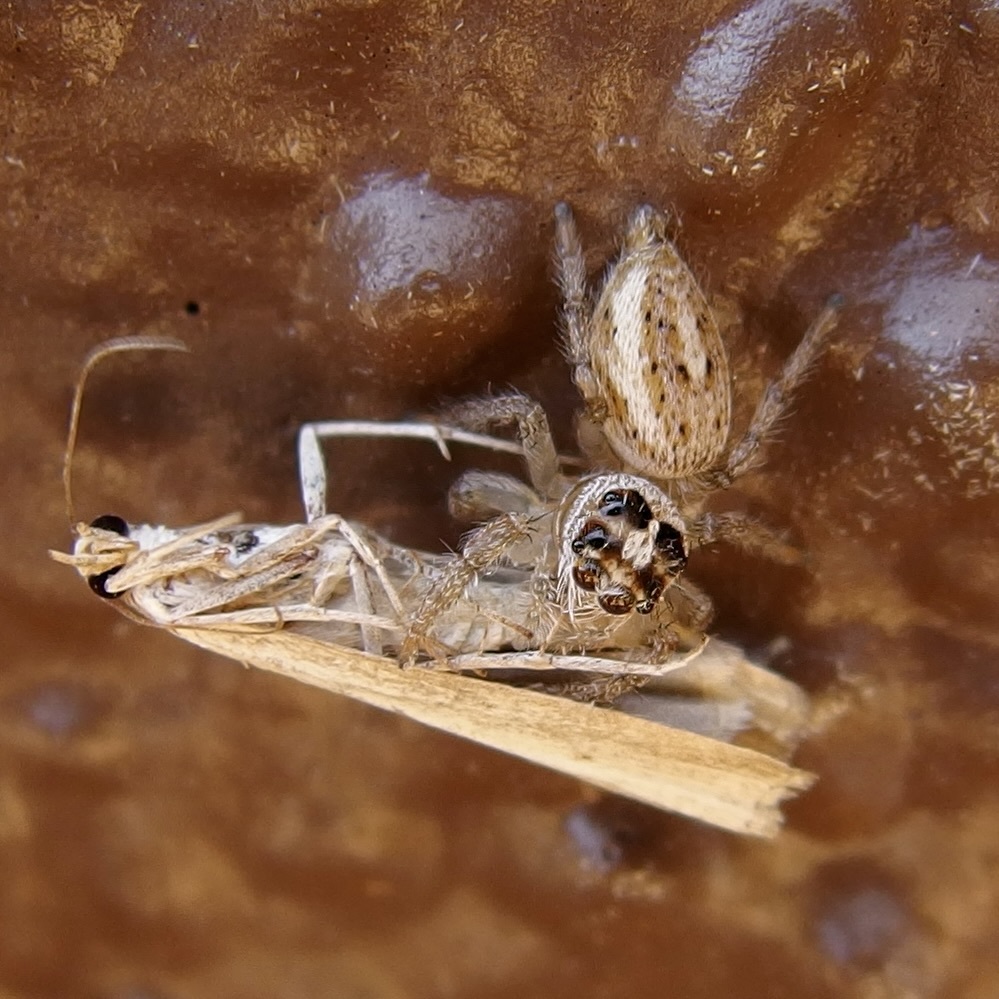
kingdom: Animalia
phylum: Arthropoda
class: Arachnida
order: Araneae
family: Salticidae
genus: Colonus
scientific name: Colonus hesperus
